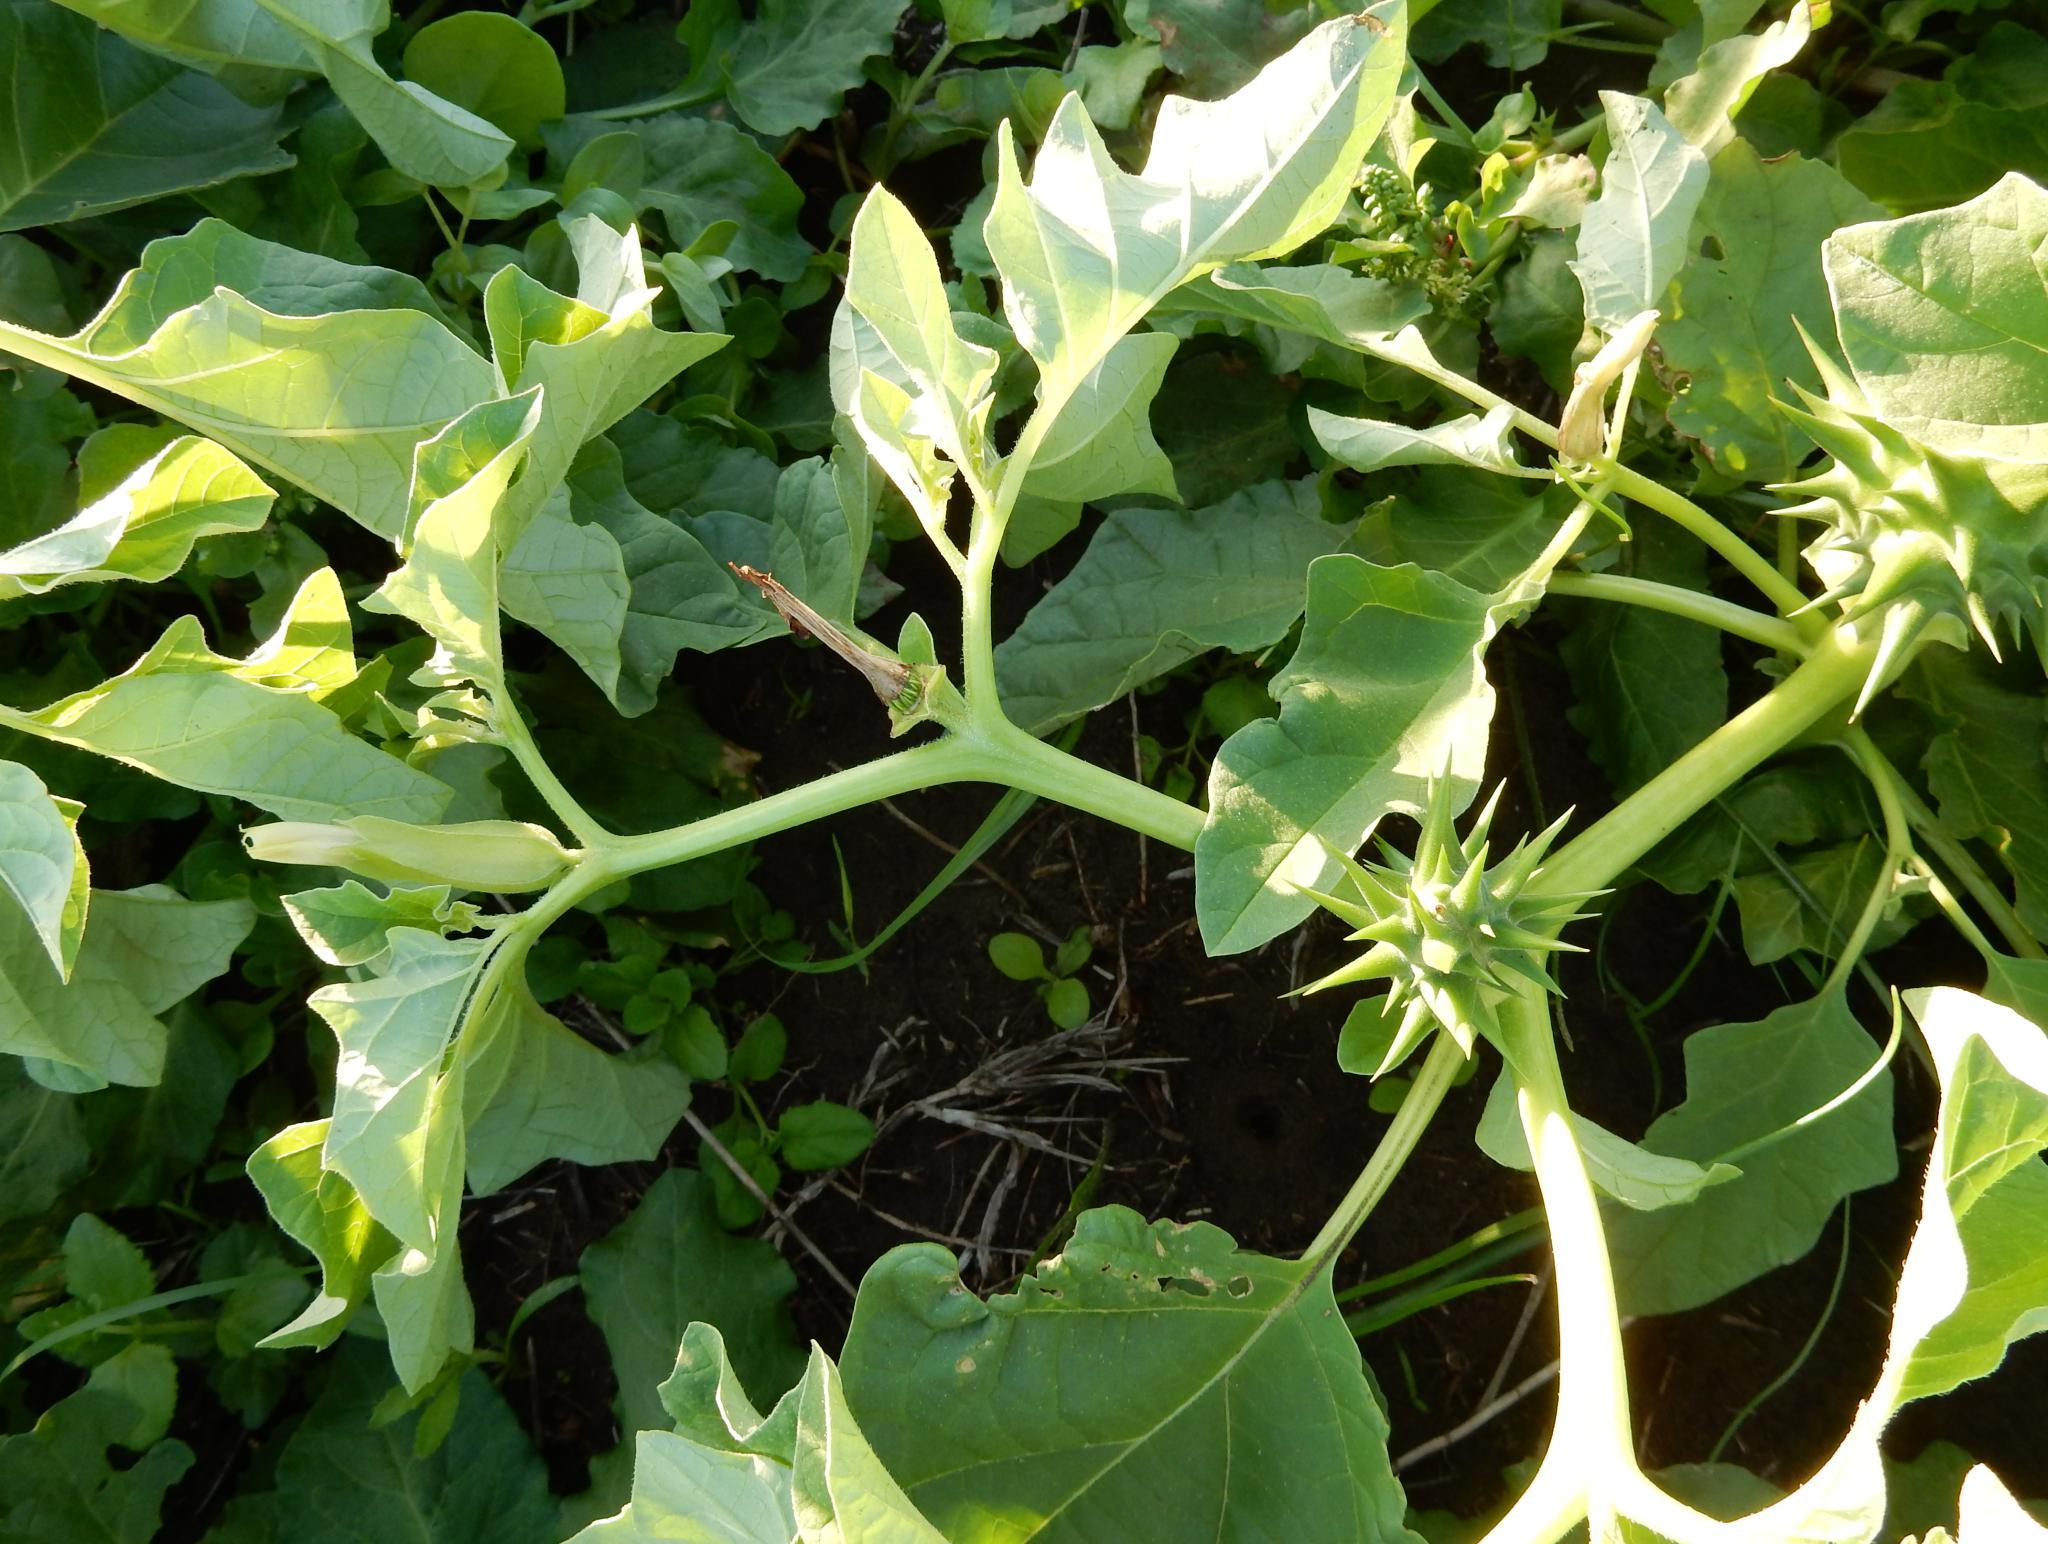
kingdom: Plantae
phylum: Tracheophyta
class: Magnoliopsida
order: Solanales
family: Solanaceae
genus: Datura
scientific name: Datura ferox
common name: Angel's-trumpets
